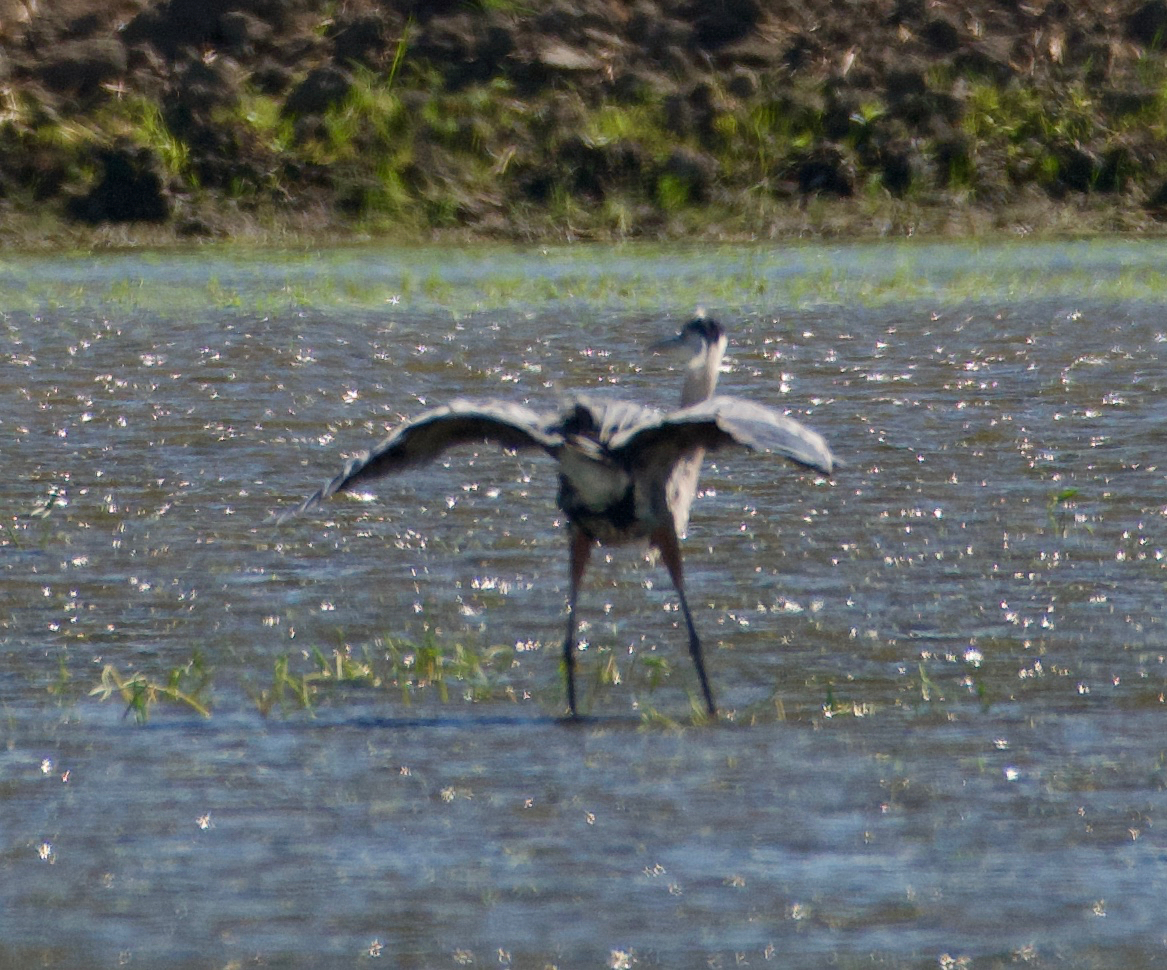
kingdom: Animalia
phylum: Chordata
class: Aves
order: Pelecaniformes
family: Ardeidae
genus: Ardea
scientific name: Ardea herodias
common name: Great blue heron
